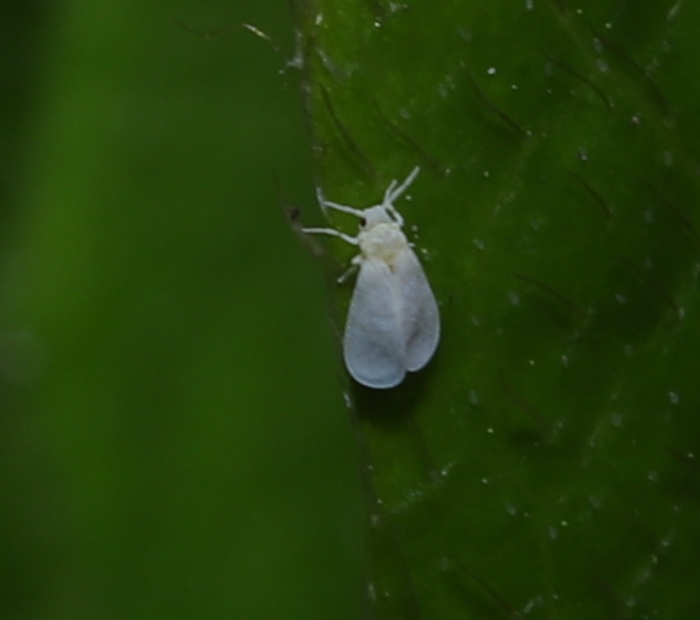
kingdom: Animalia
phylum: Arthropoda
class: Insecta
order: Hemiptera
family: Aleyrodidae
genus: Trialeurodes
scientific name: Trialeurodes vaporariorum
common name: Greenhouse white fly
